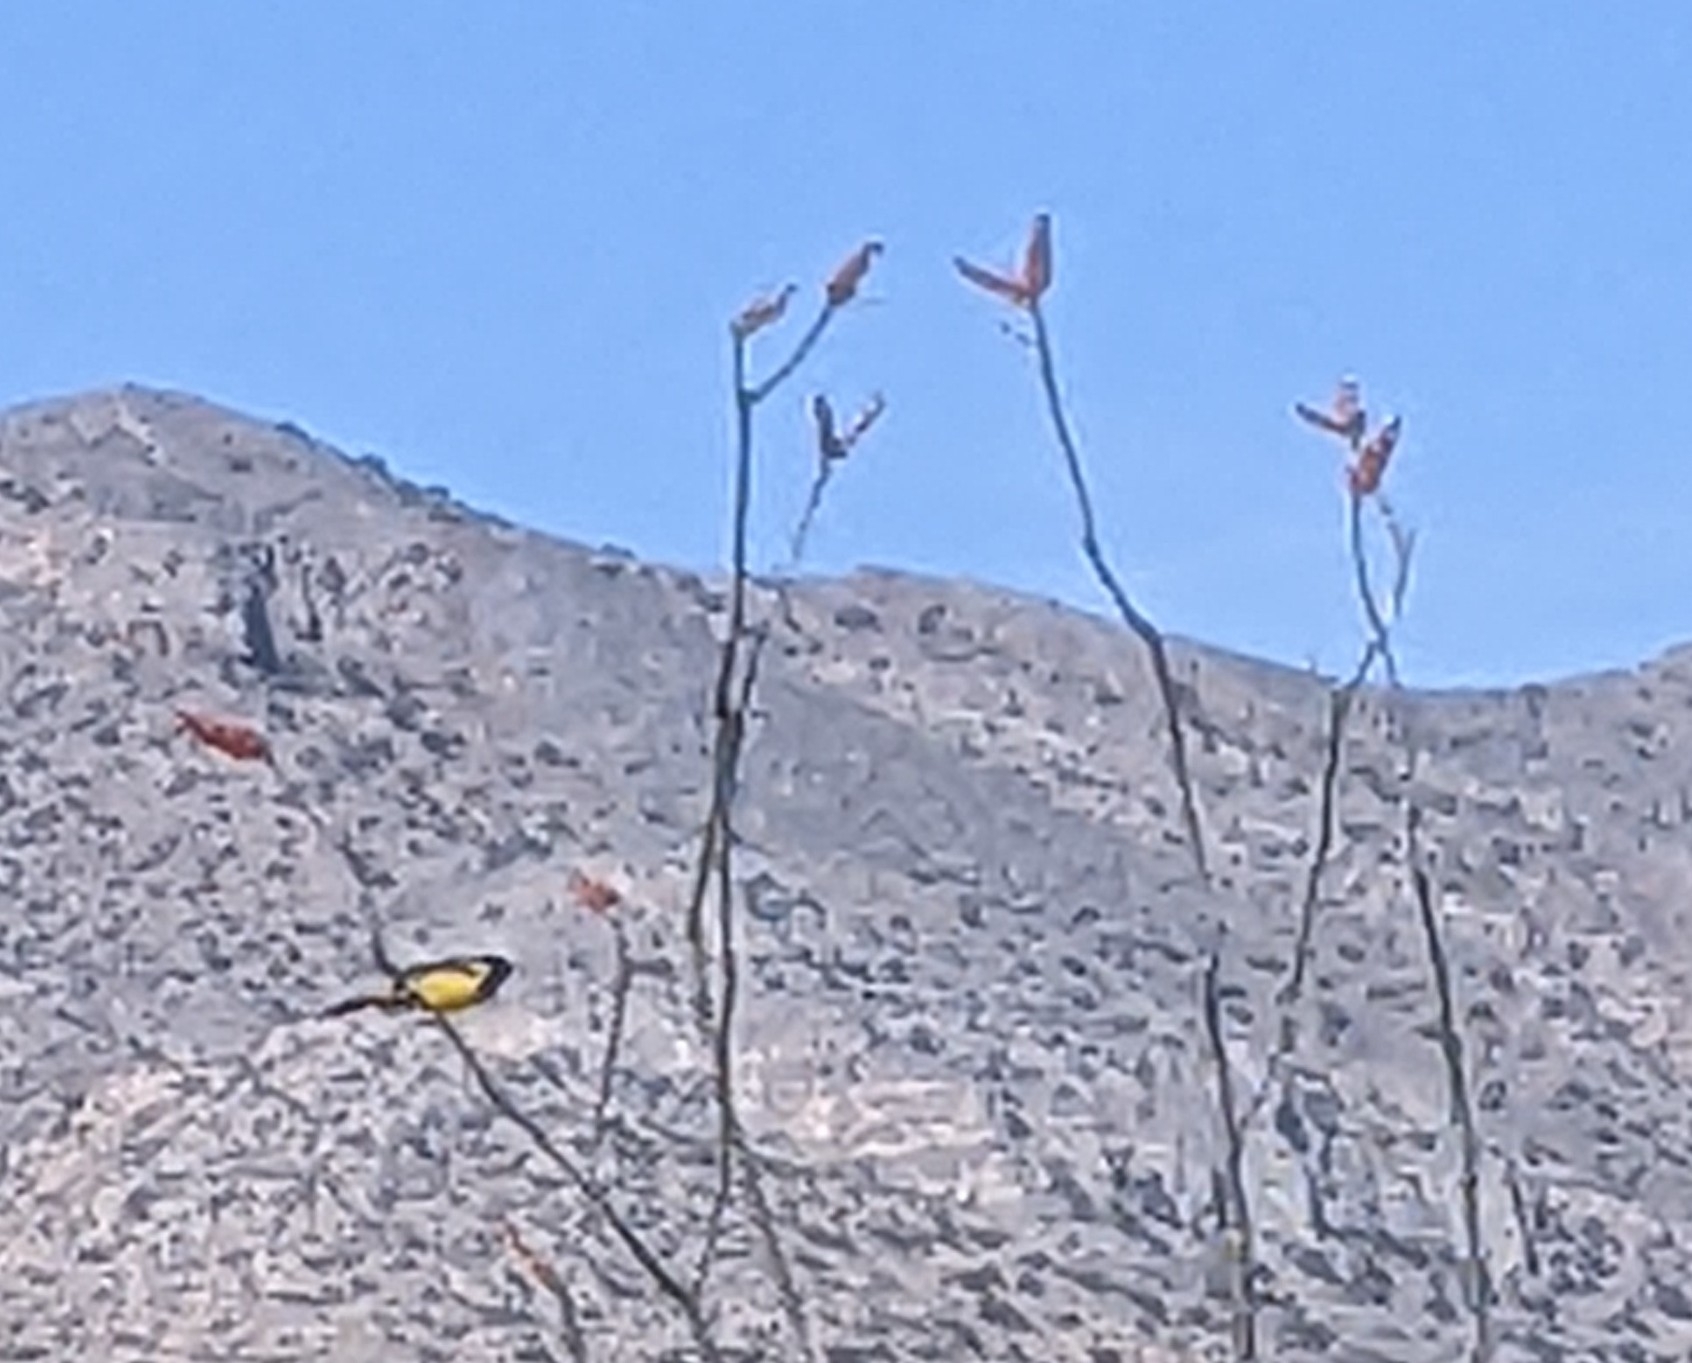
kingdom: Animalia
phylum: Chordata
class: Aves
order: Passeriformes
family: Icteridae
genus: Icterus
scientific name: Icterus parisorum
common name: Scott's oriole
